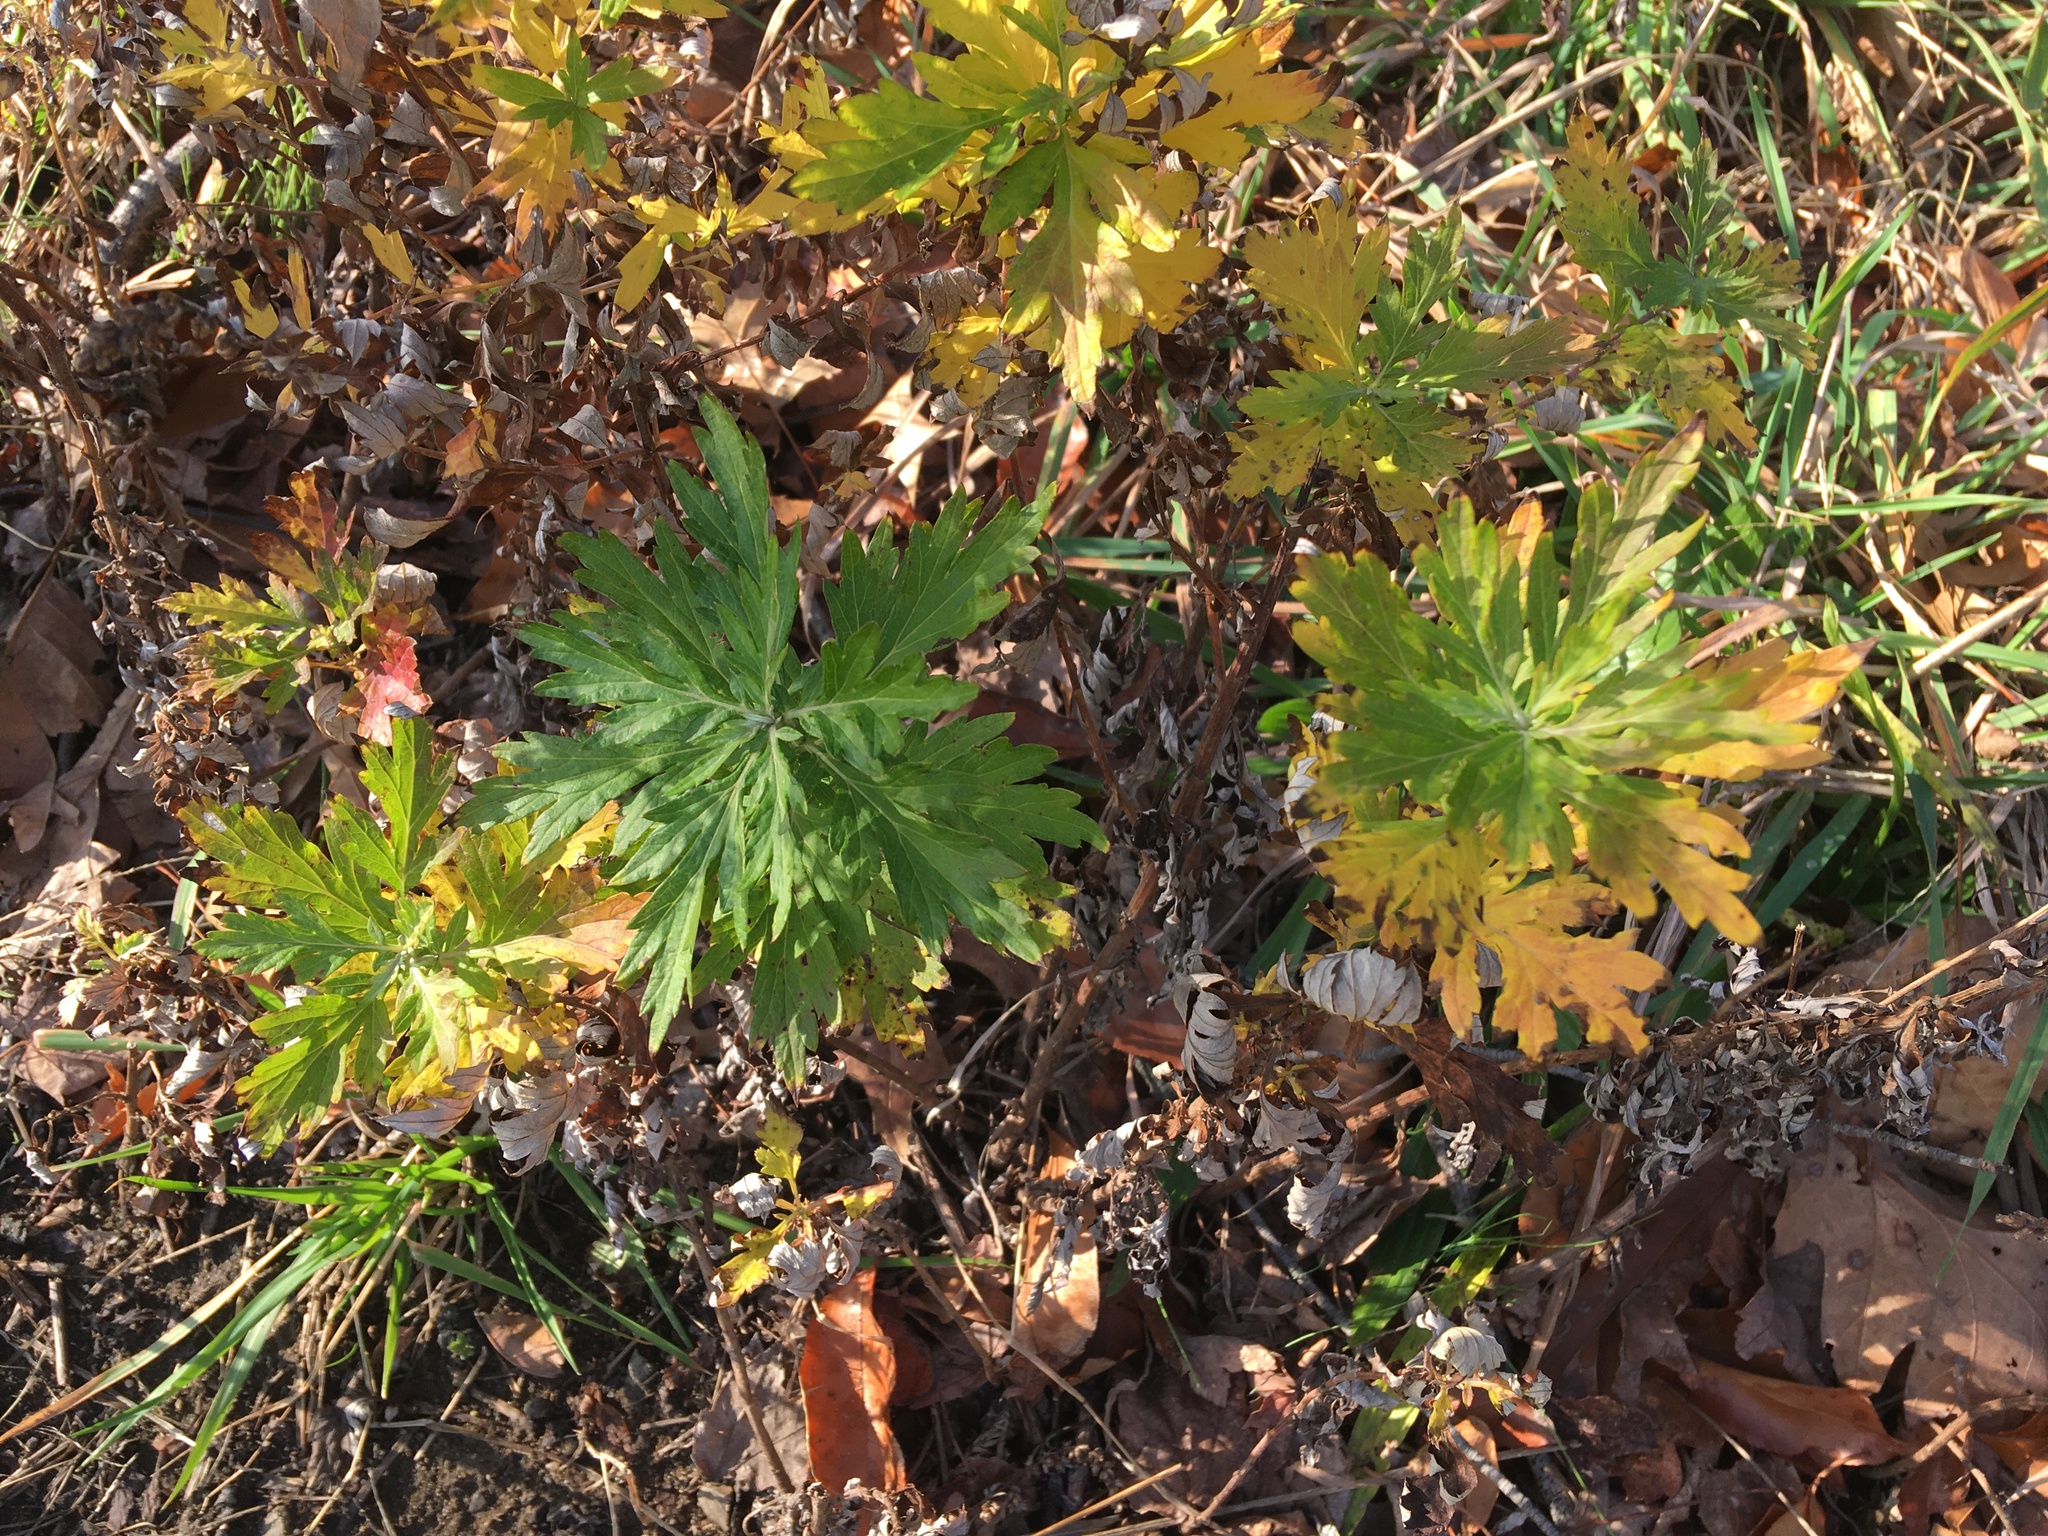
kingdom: Plantae
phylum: Tracheophyta
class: Magnoliopsida
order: Asterales
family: Asteraceae
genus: Artemisia
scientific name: Artemisia vulgaris
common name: Mugwort
